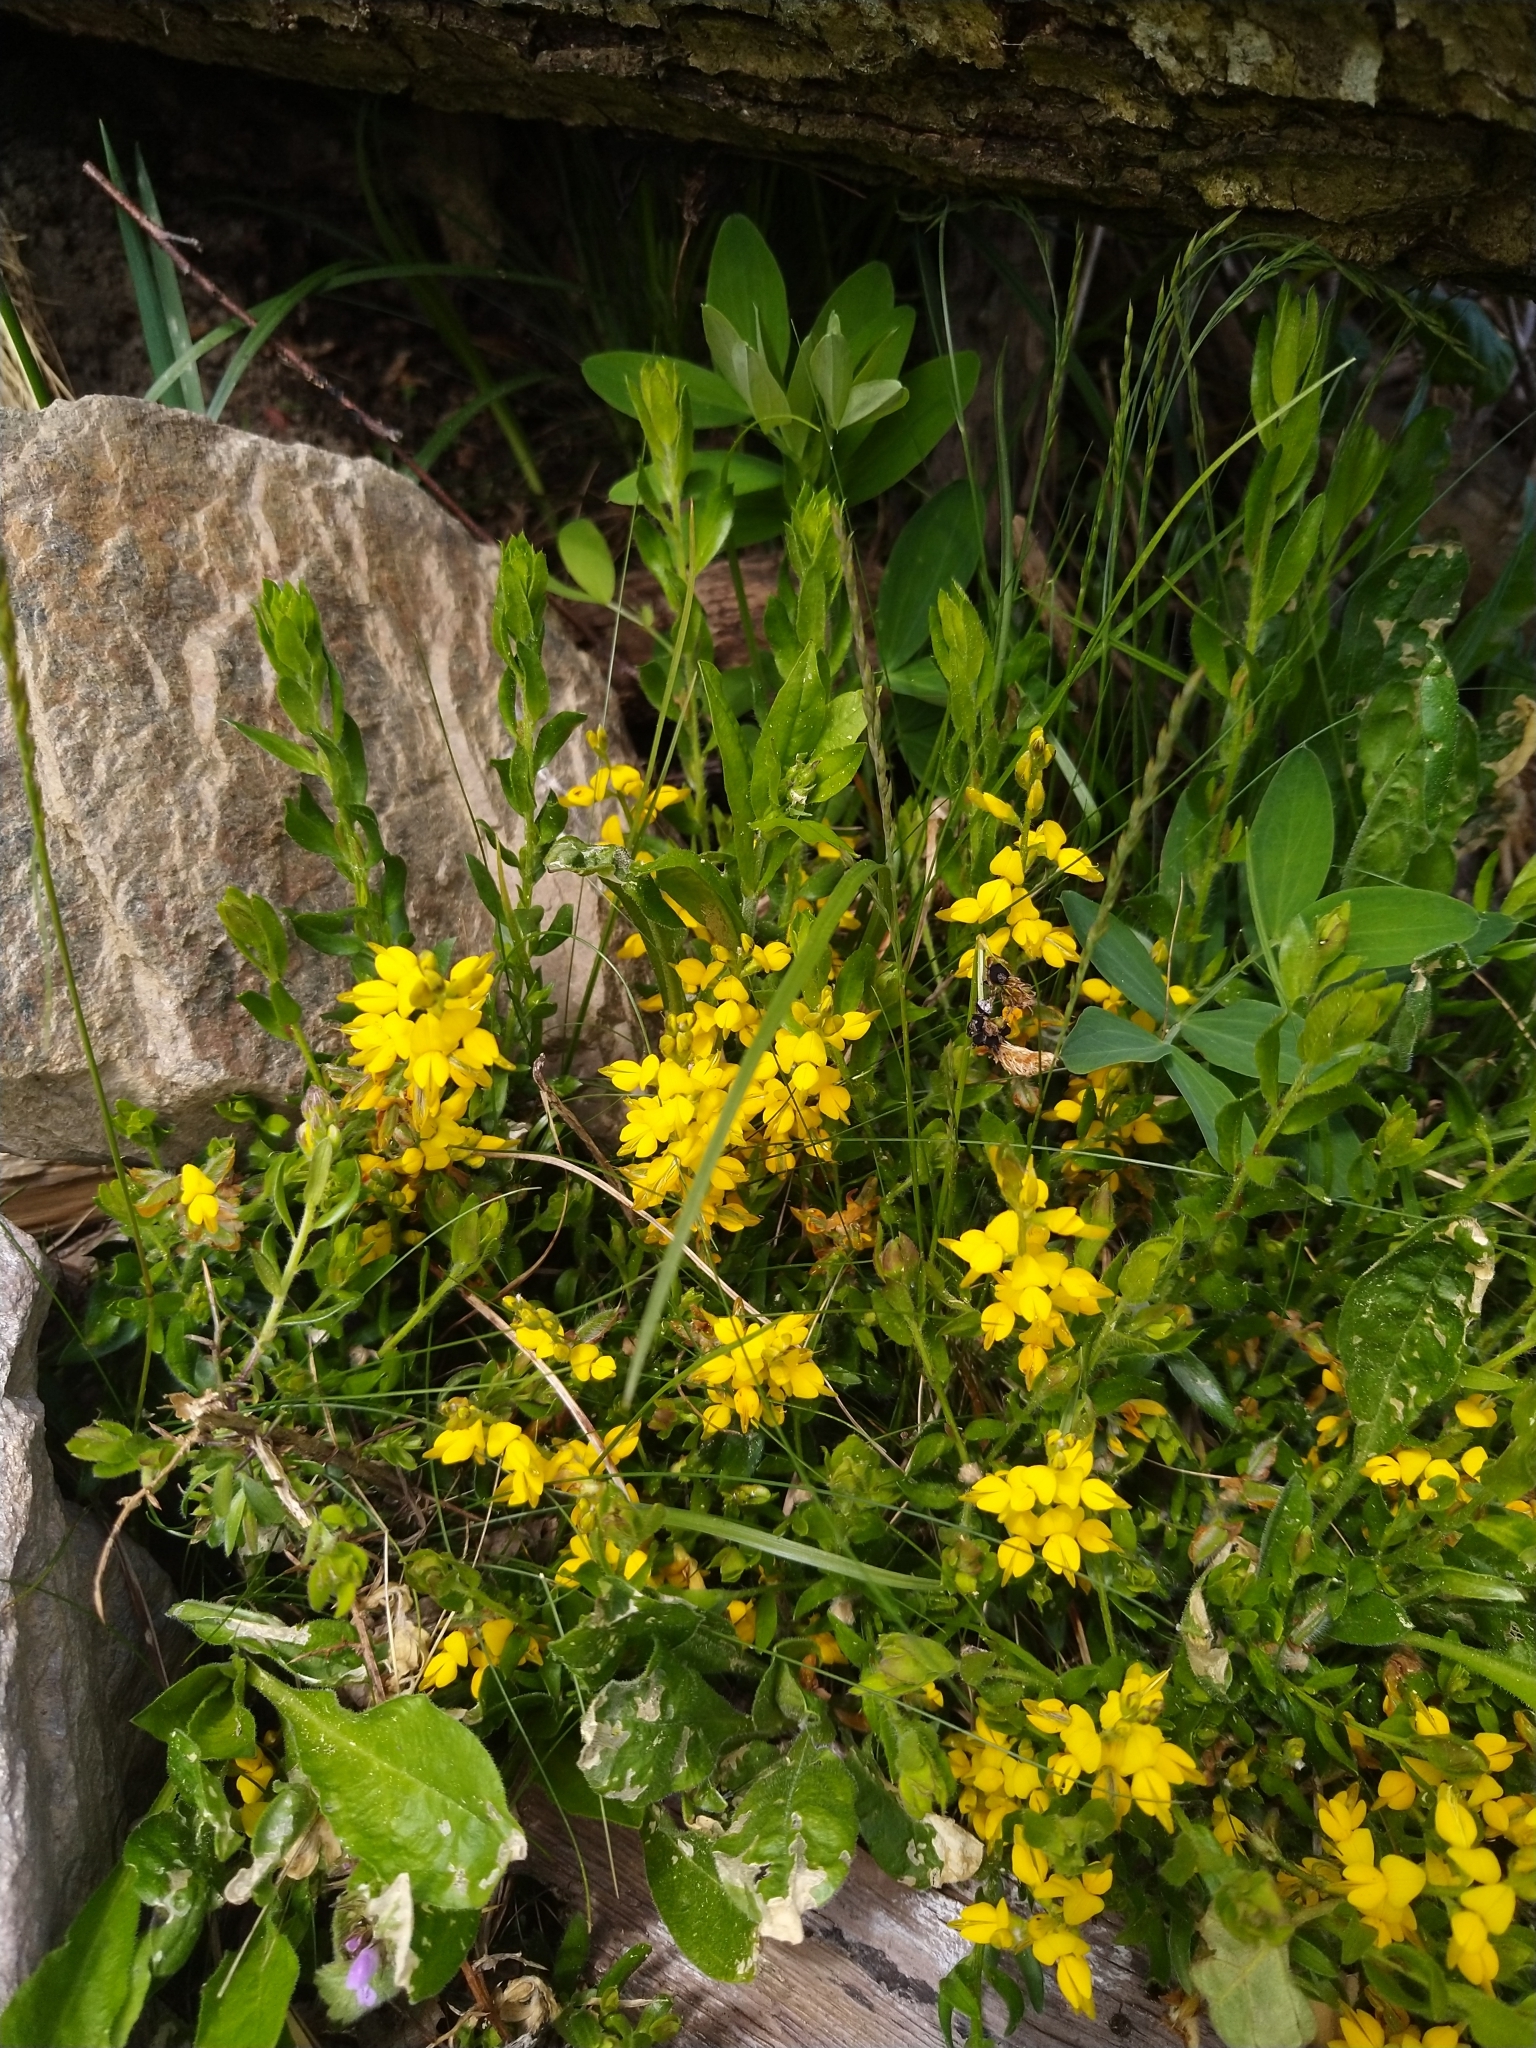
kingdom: Plantae
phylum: Tracheophyta
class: Magnoliopsida
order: Fabales
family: Fabaceae
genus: Genista
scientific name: Genista tinctoria
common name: Dyer's greenweed
